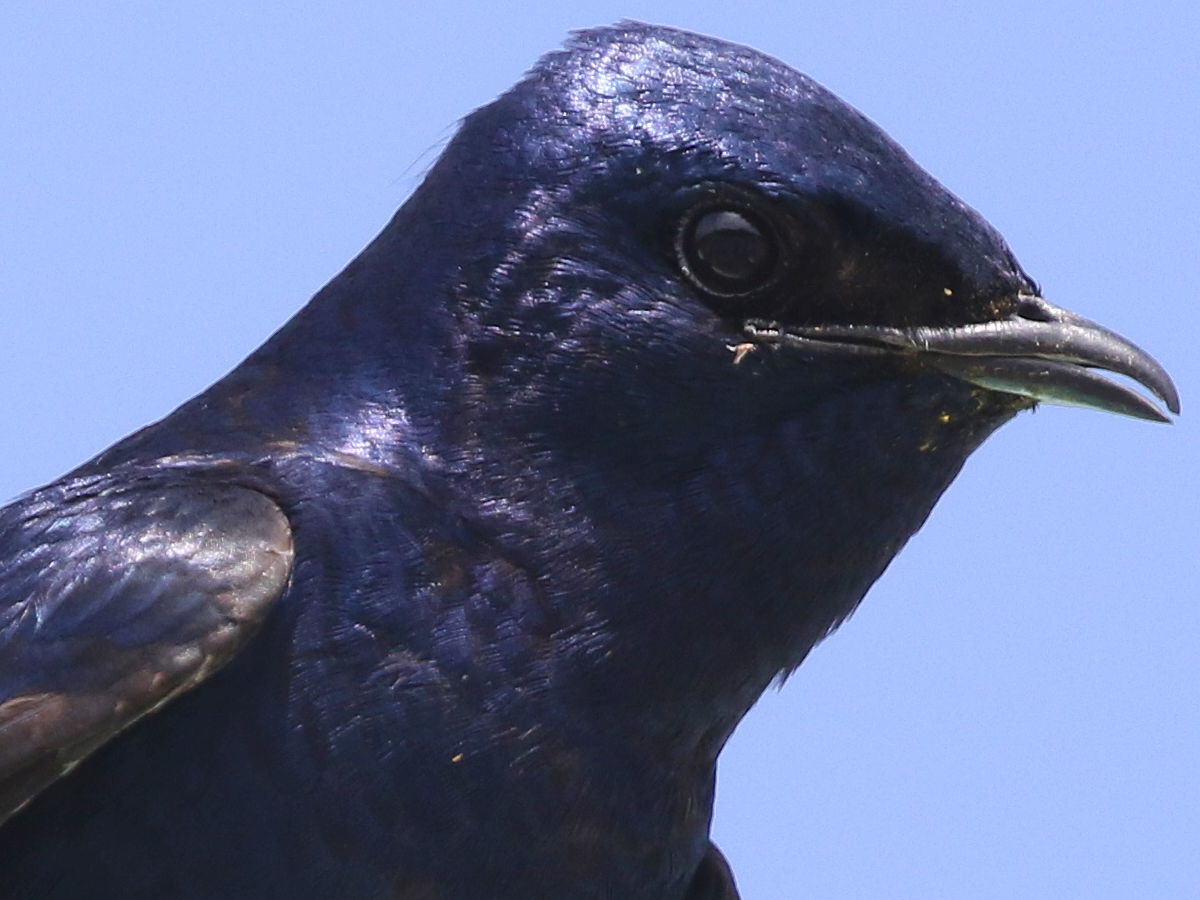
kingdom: Animalia
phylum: Chordata
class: Aves
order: Passeriformes
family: Hirundinidae
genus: Progne
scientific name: Progne subis
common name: Purple martin
